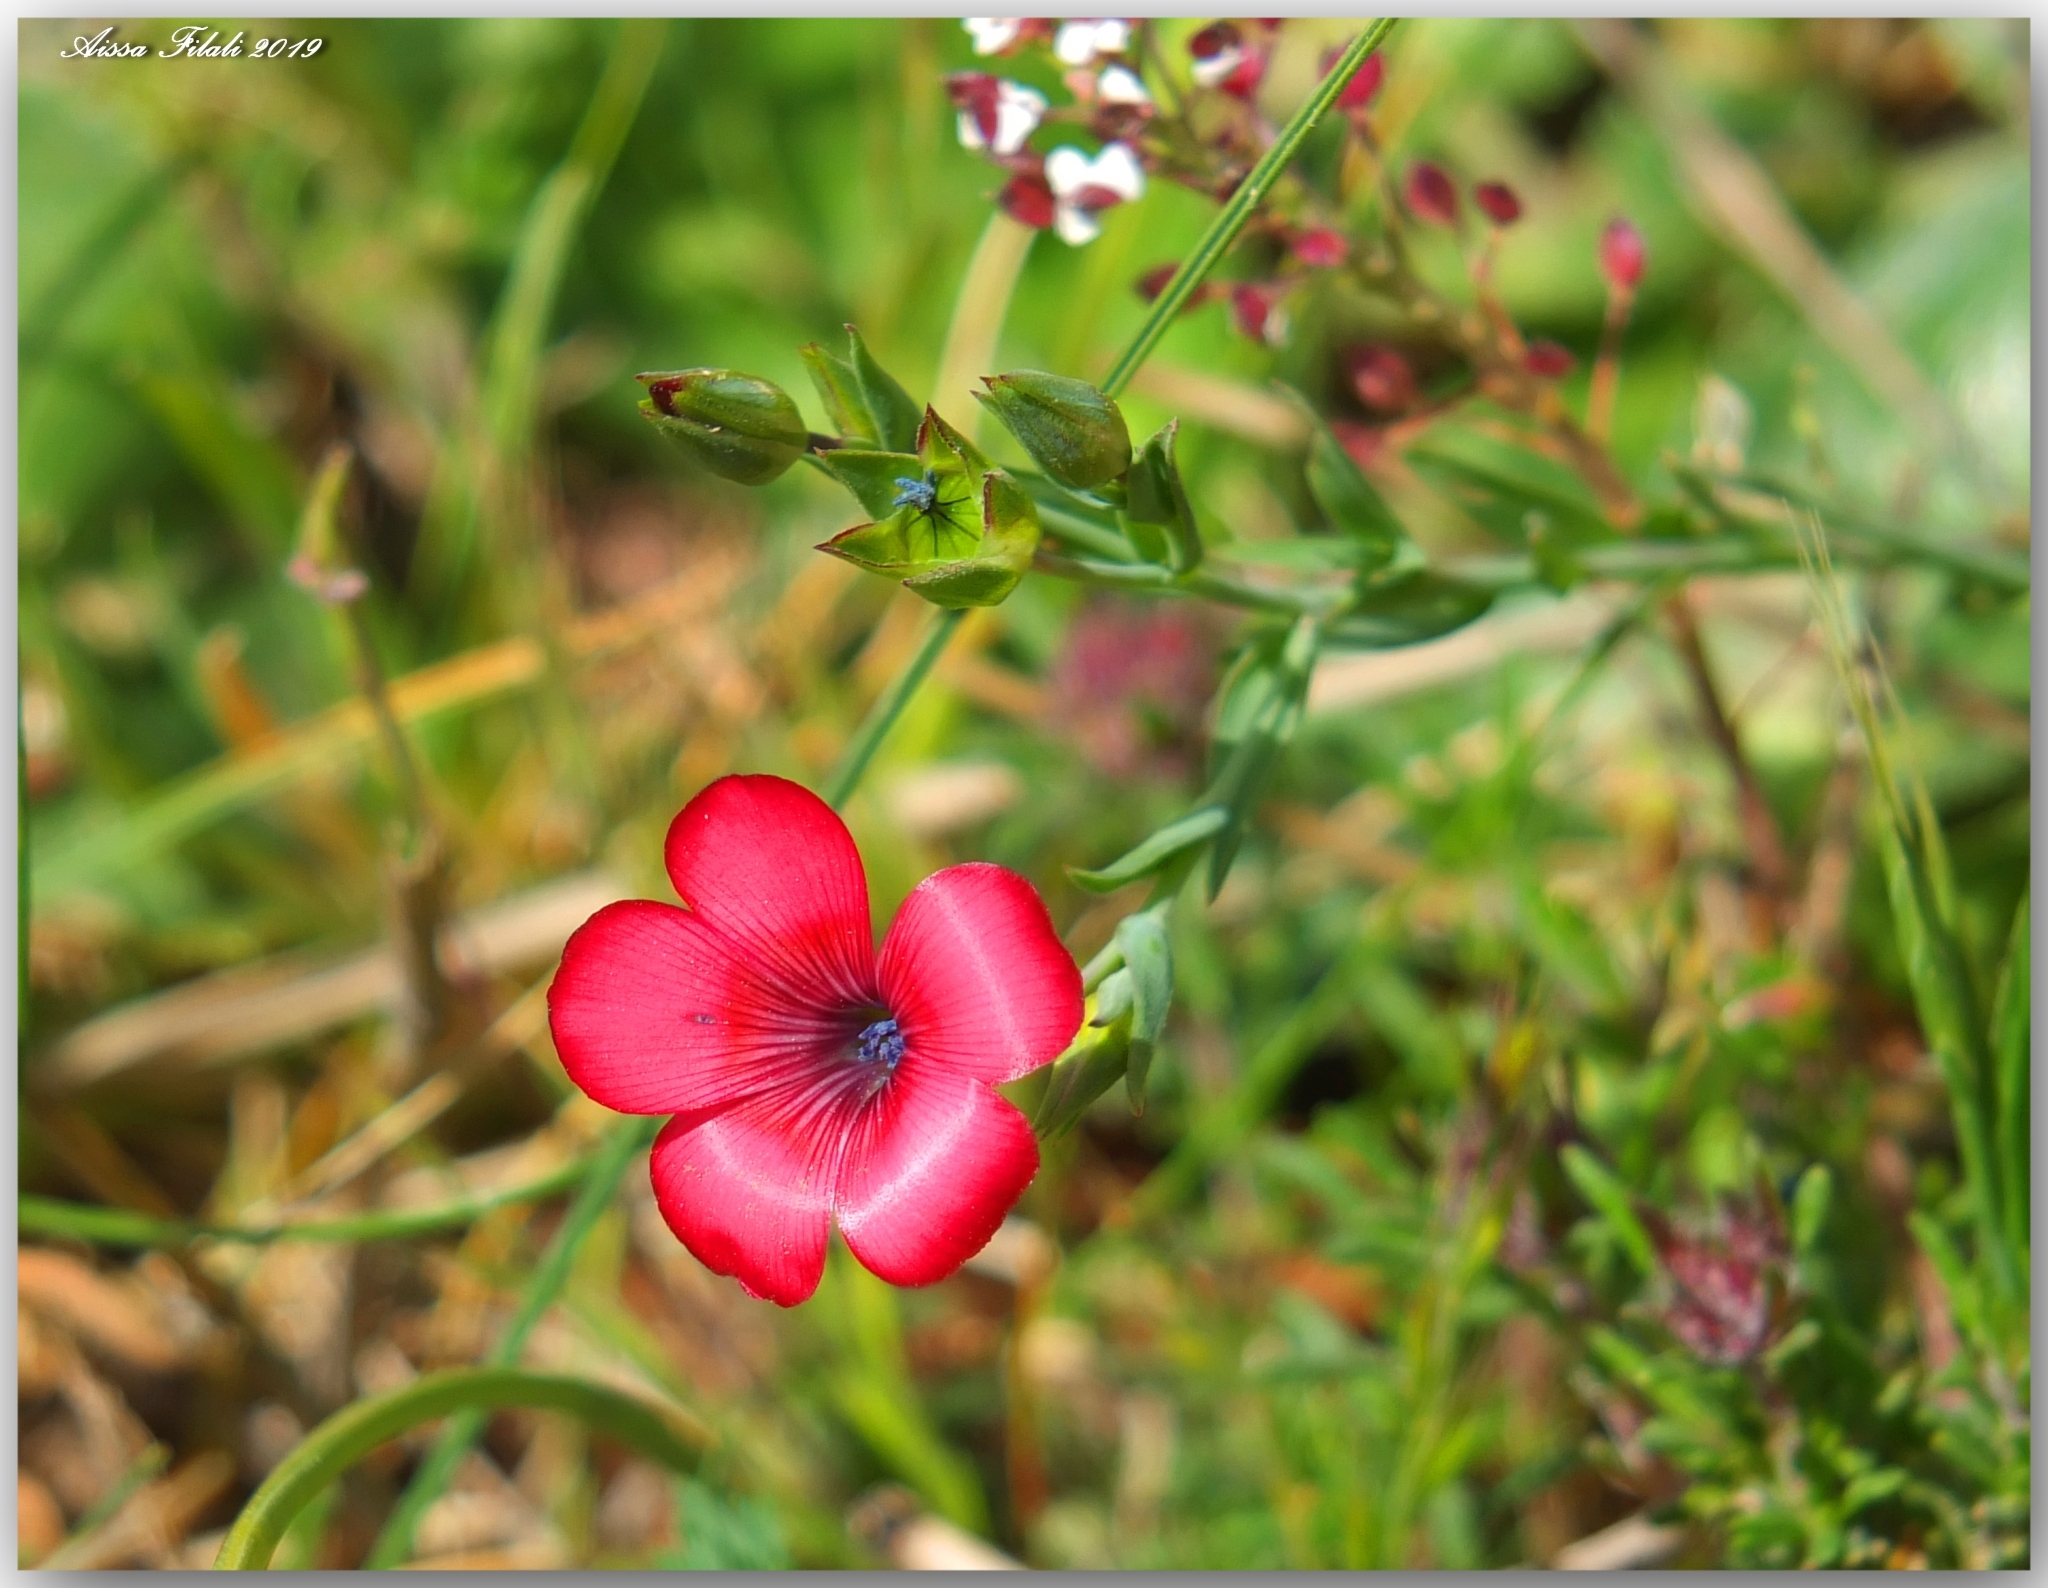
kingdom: Plantae
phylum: Tracheophyta
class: Magnoliopsida
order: Malpighiales
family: Linaceae
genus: Linum
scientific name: Linum decumbens
